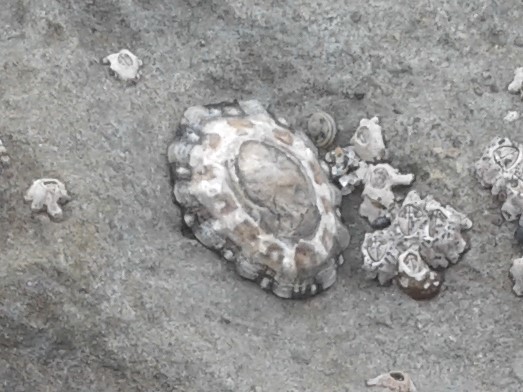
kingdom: Animalia
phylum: Mollusca
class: Gastropoda
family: Nacellidae
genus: Cellana
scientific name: Cellana ornata
